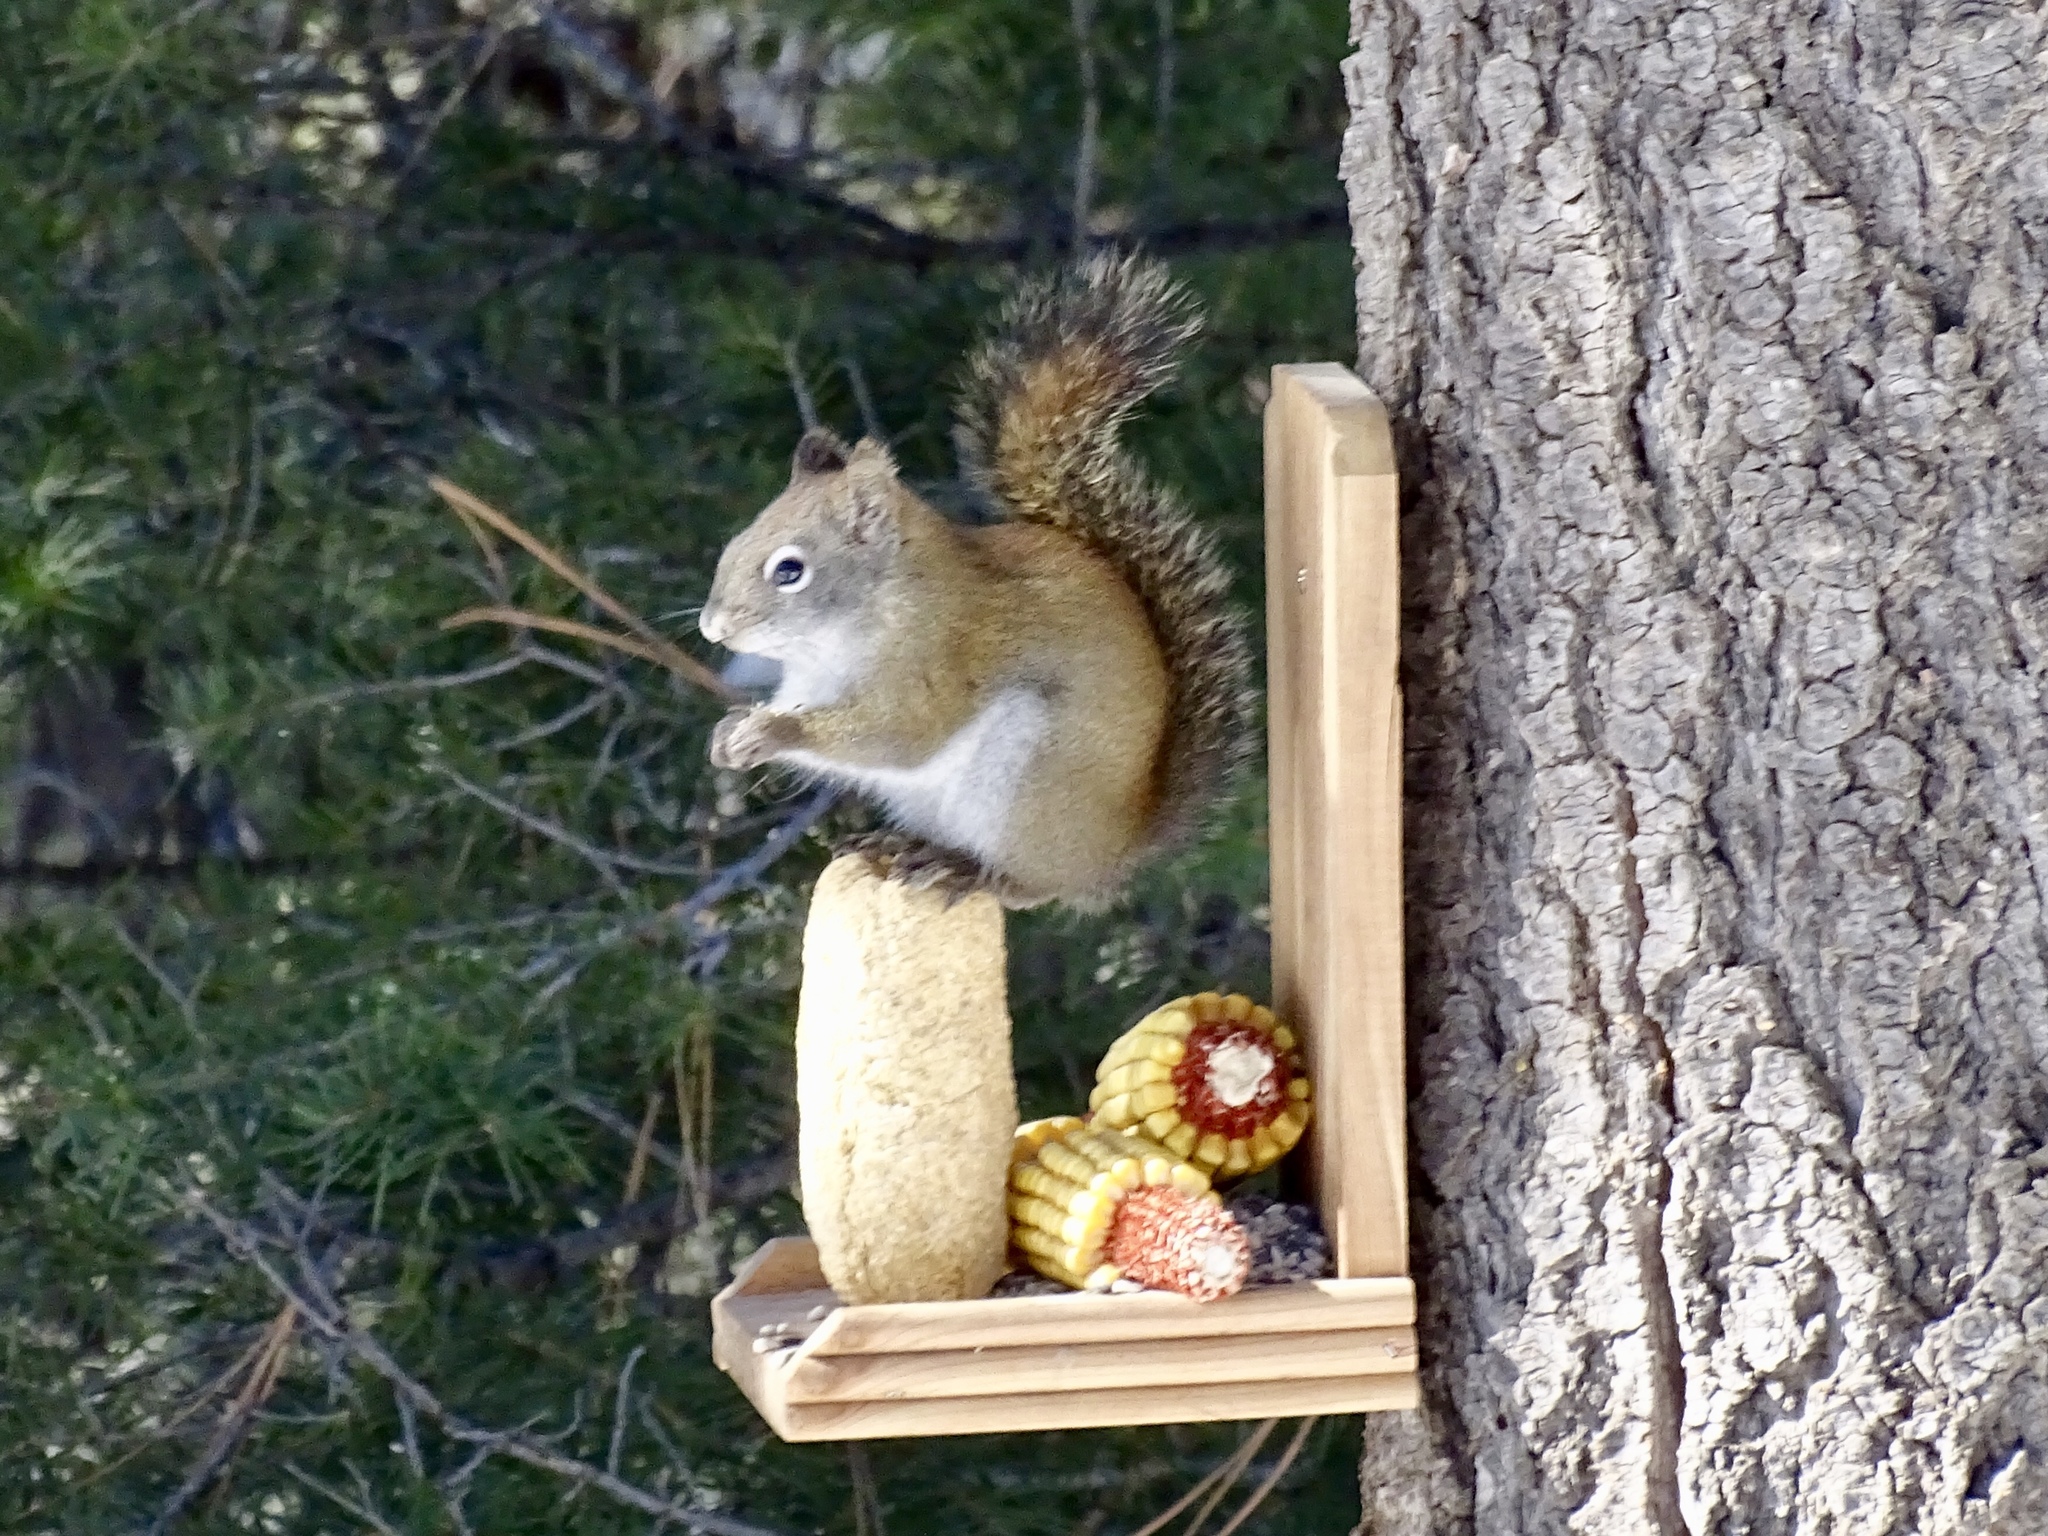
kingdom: Animalia
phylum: Chordata
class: Mammalia
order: Rodentia
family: Sciuridae
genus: Tamiasciurus
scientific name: Tamiasciurus hudsonicus
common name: Red squirrel
